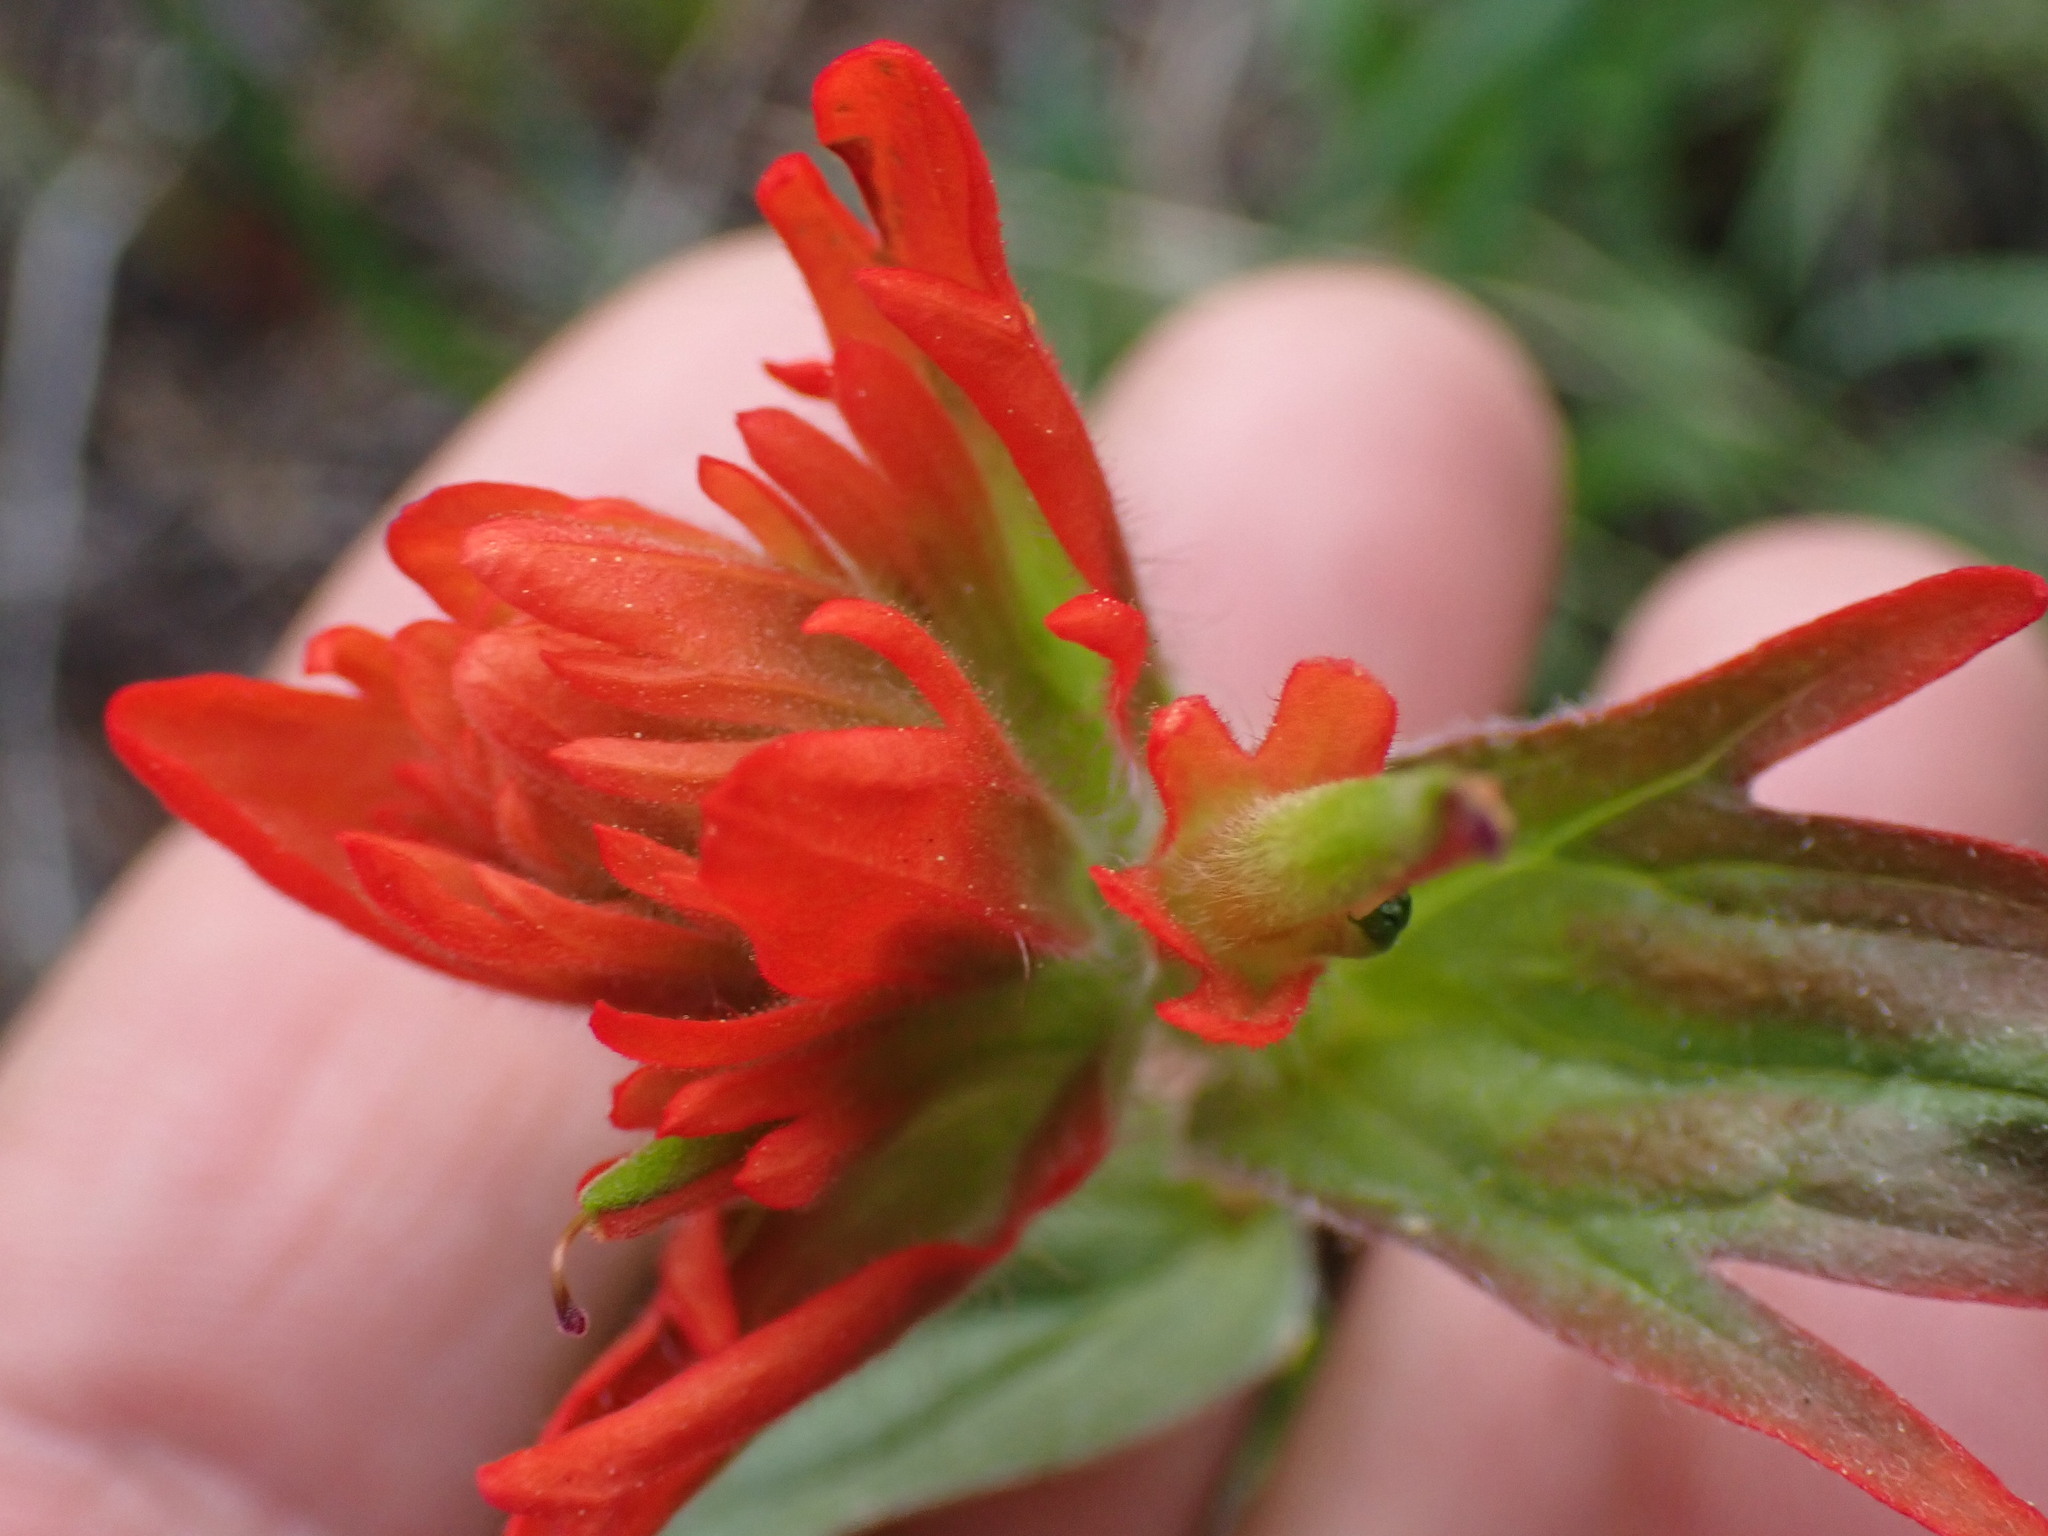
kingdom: Plantae
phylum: Tracheophyta
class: Magnoliopsida
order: Lamiales
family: Orobanchaceae
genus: Castilleja
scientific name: Castilleja hispida
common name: Bristly paintbrush
